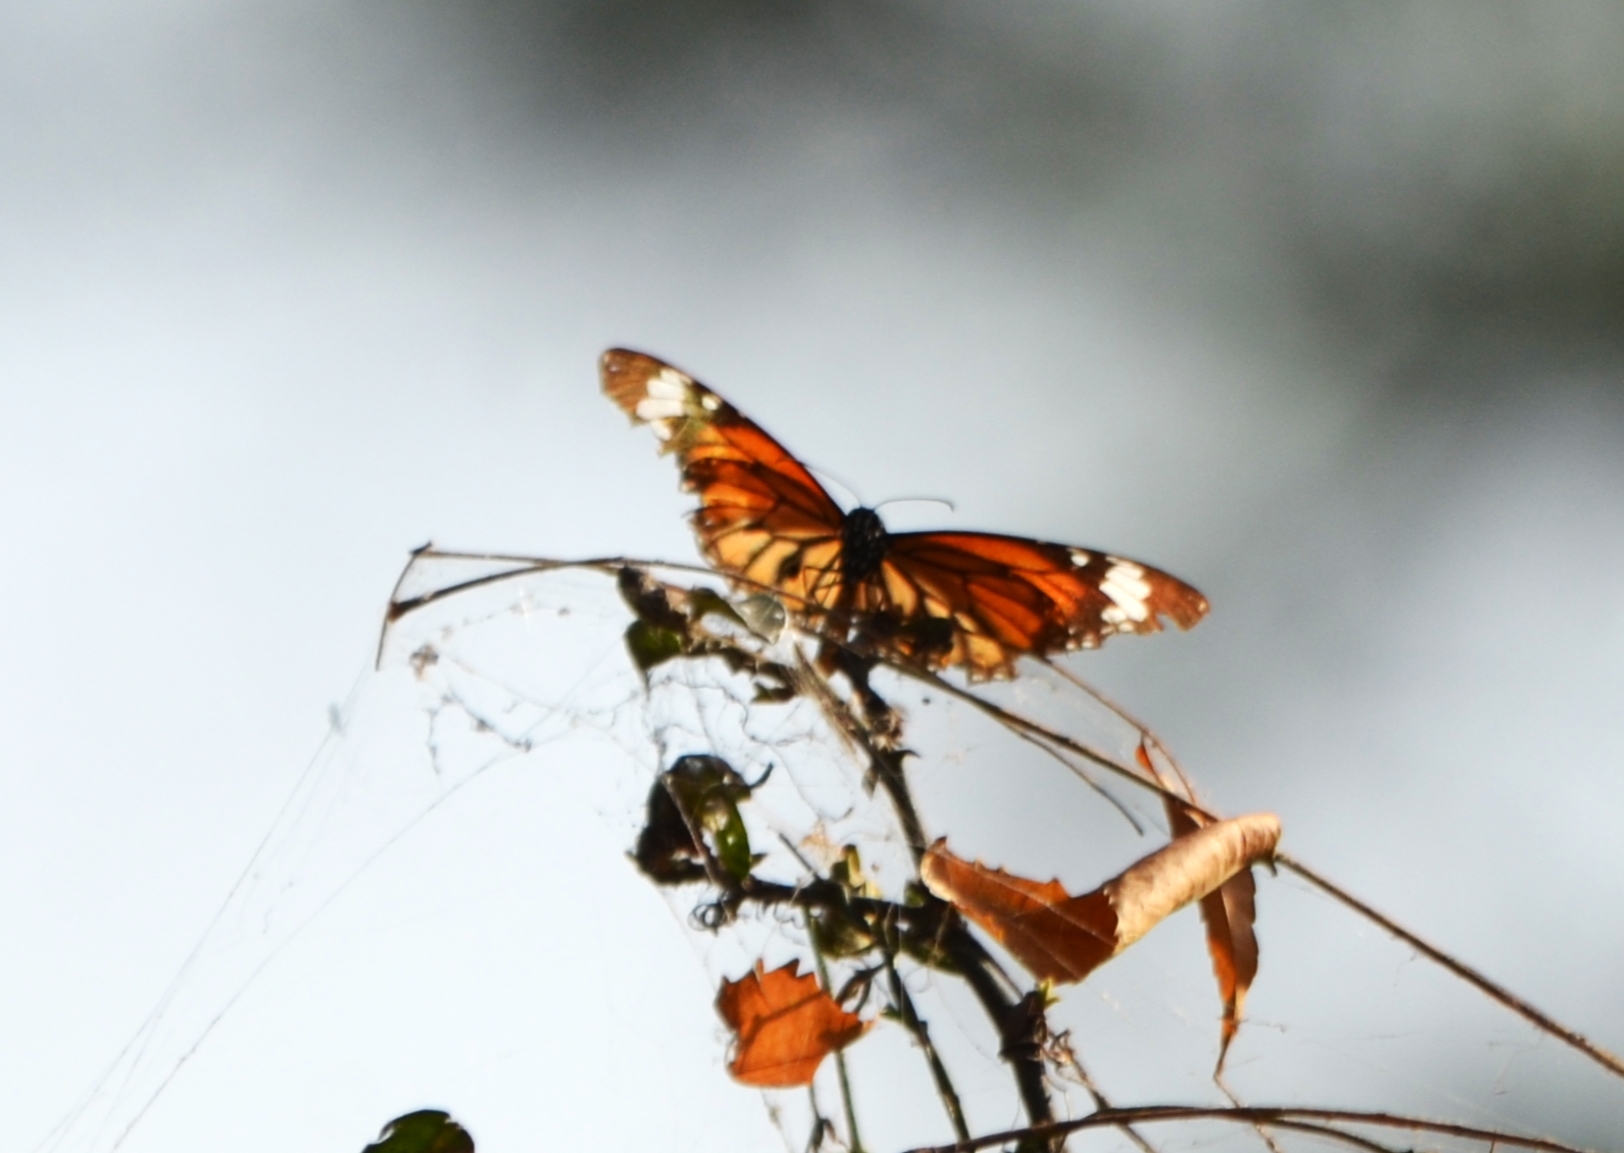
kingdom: Animalia
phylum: Arthropoda
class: Insecta
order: Lepidoptera
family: Nymphalidae
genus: Danaus
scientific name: Danaus genutia
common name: Common tiger butterfly
